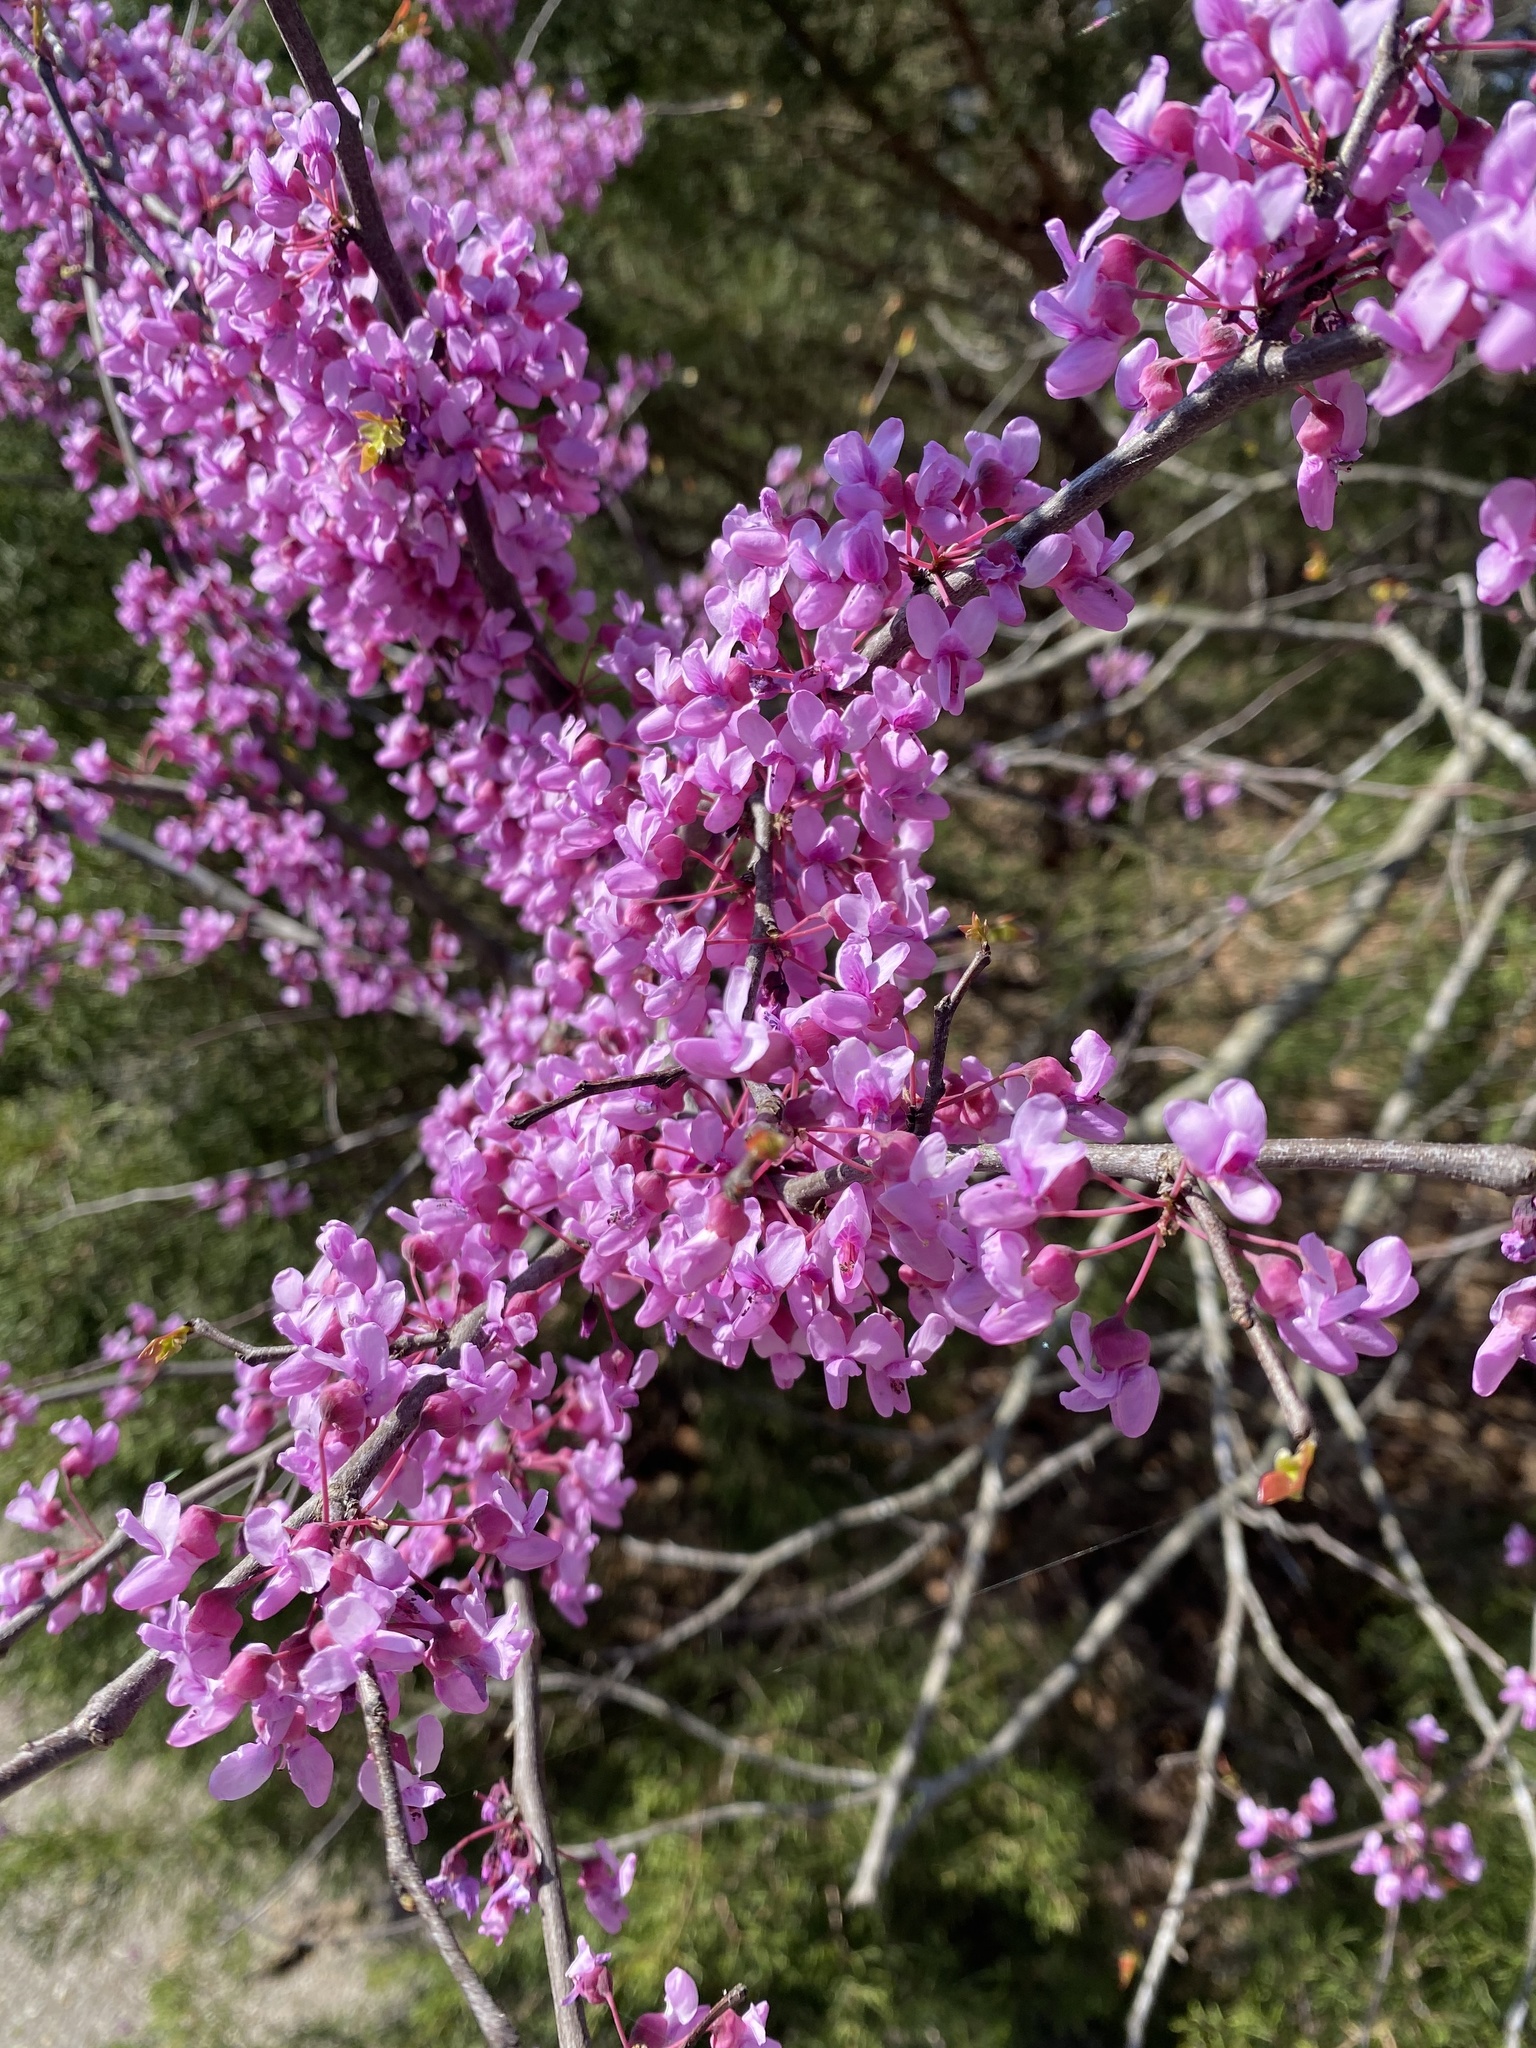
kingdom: Plantae
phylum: Tracheophyta
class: Magnoliopsida
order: Fabales
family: Fabaceae
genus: Cercis
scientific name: Cercis canadensis
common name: Eastern redbud
